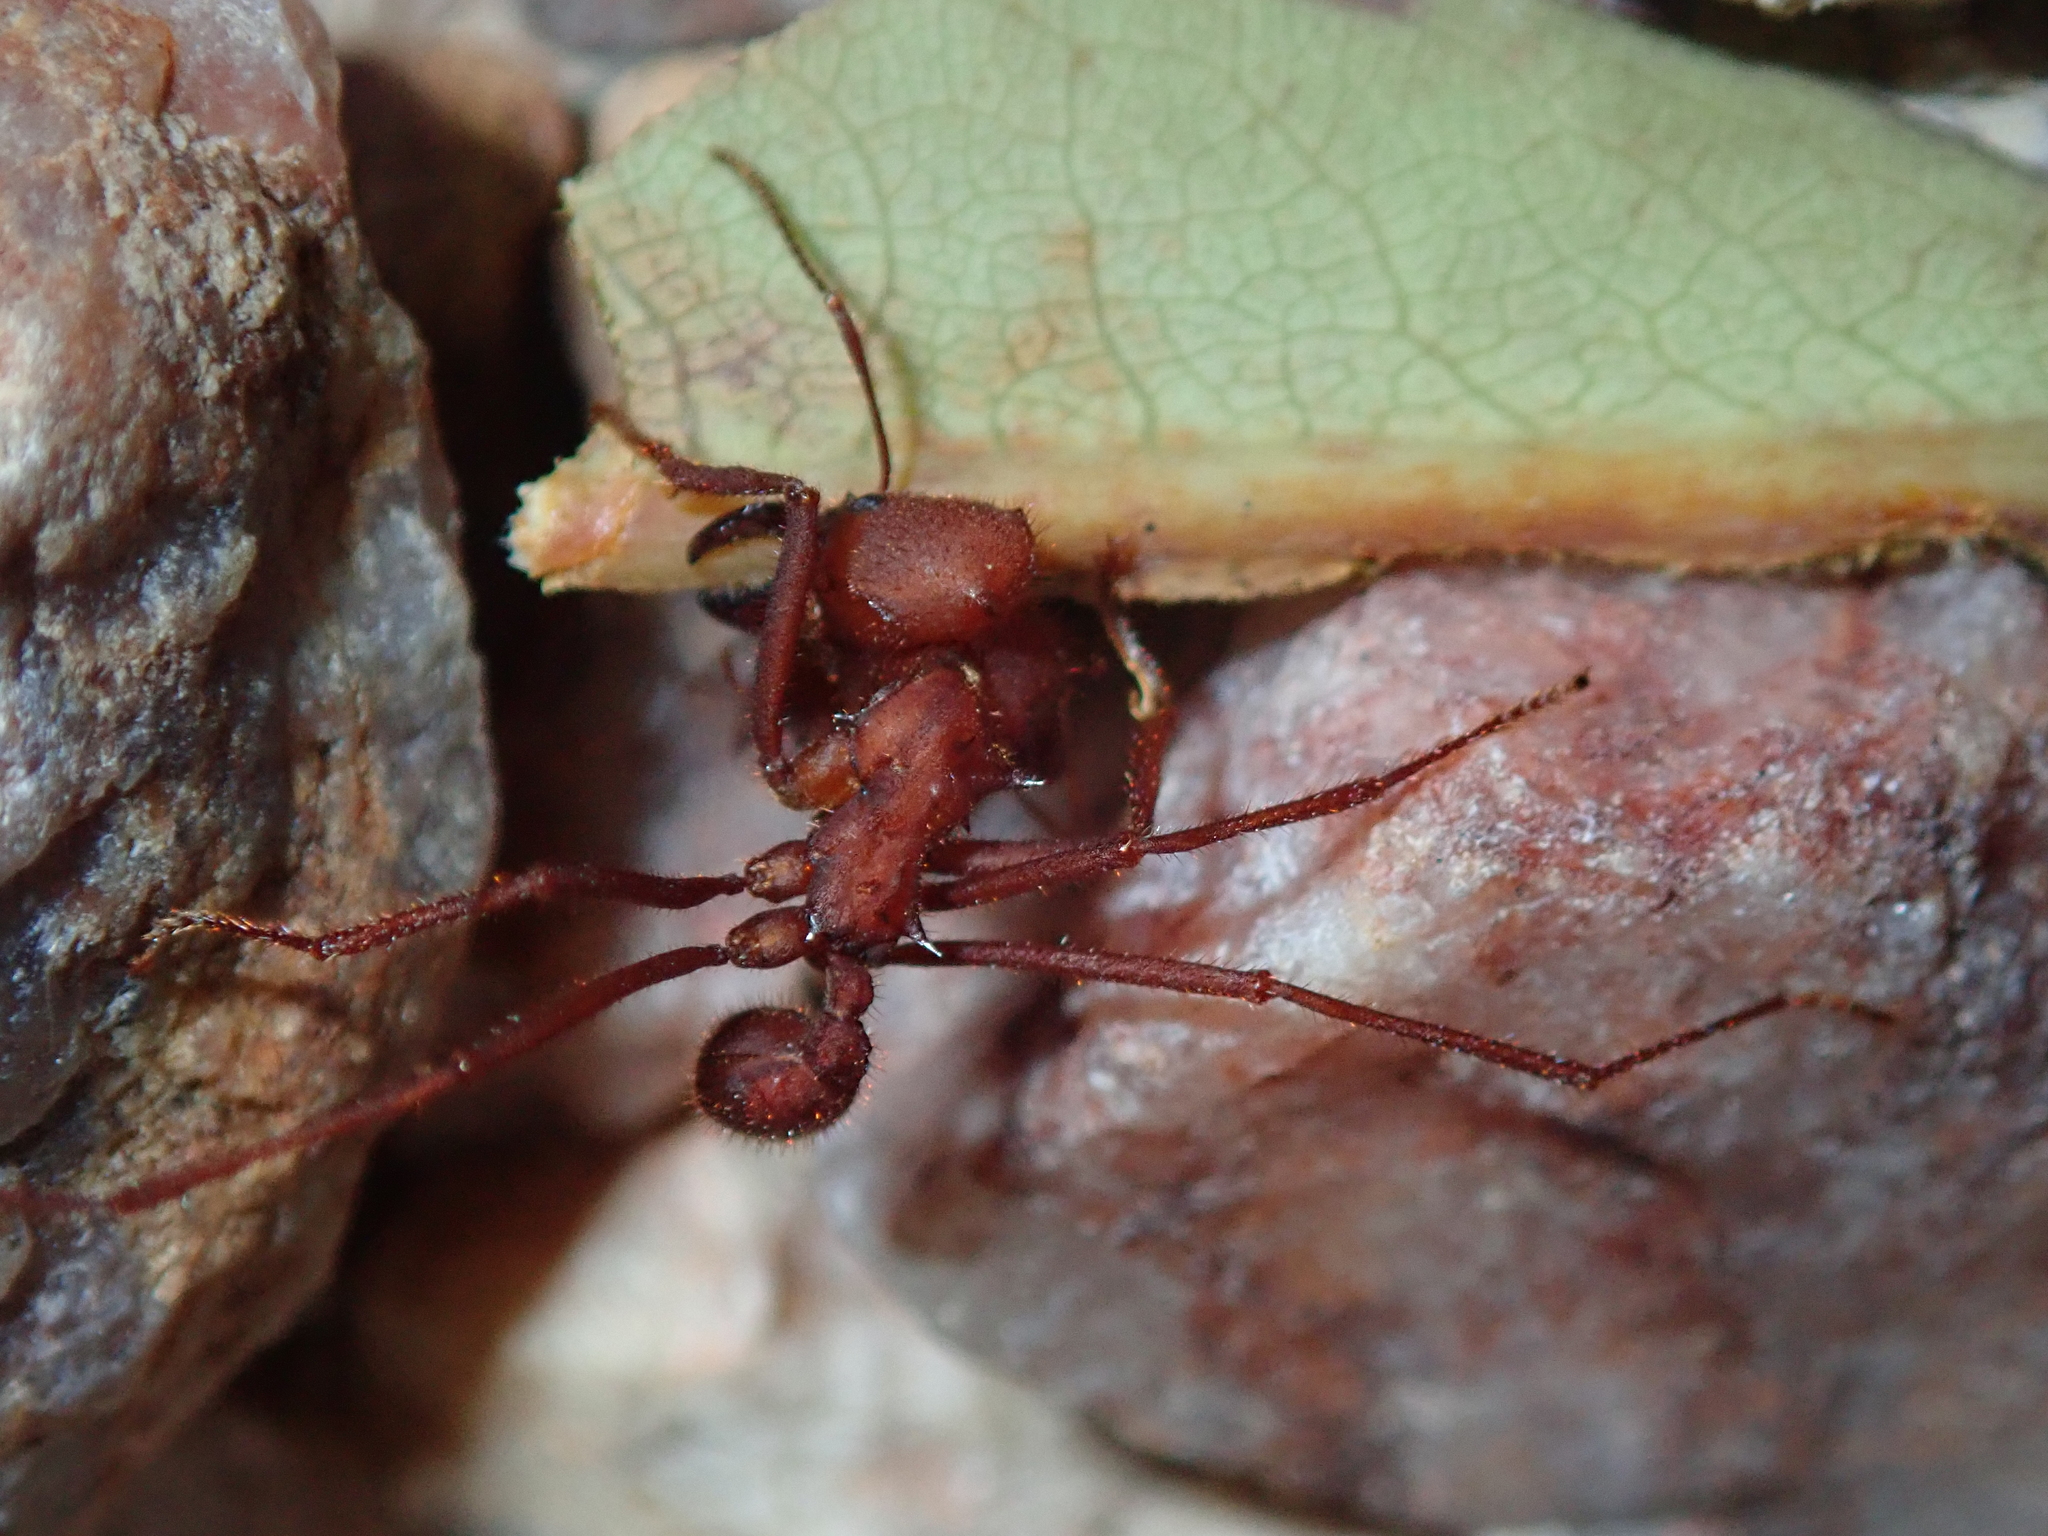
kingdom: Animalia
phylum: Arthropoda
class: Insecta
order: Hymenoptera
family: Formicidae
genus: Atta
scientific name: Atta laevigata
